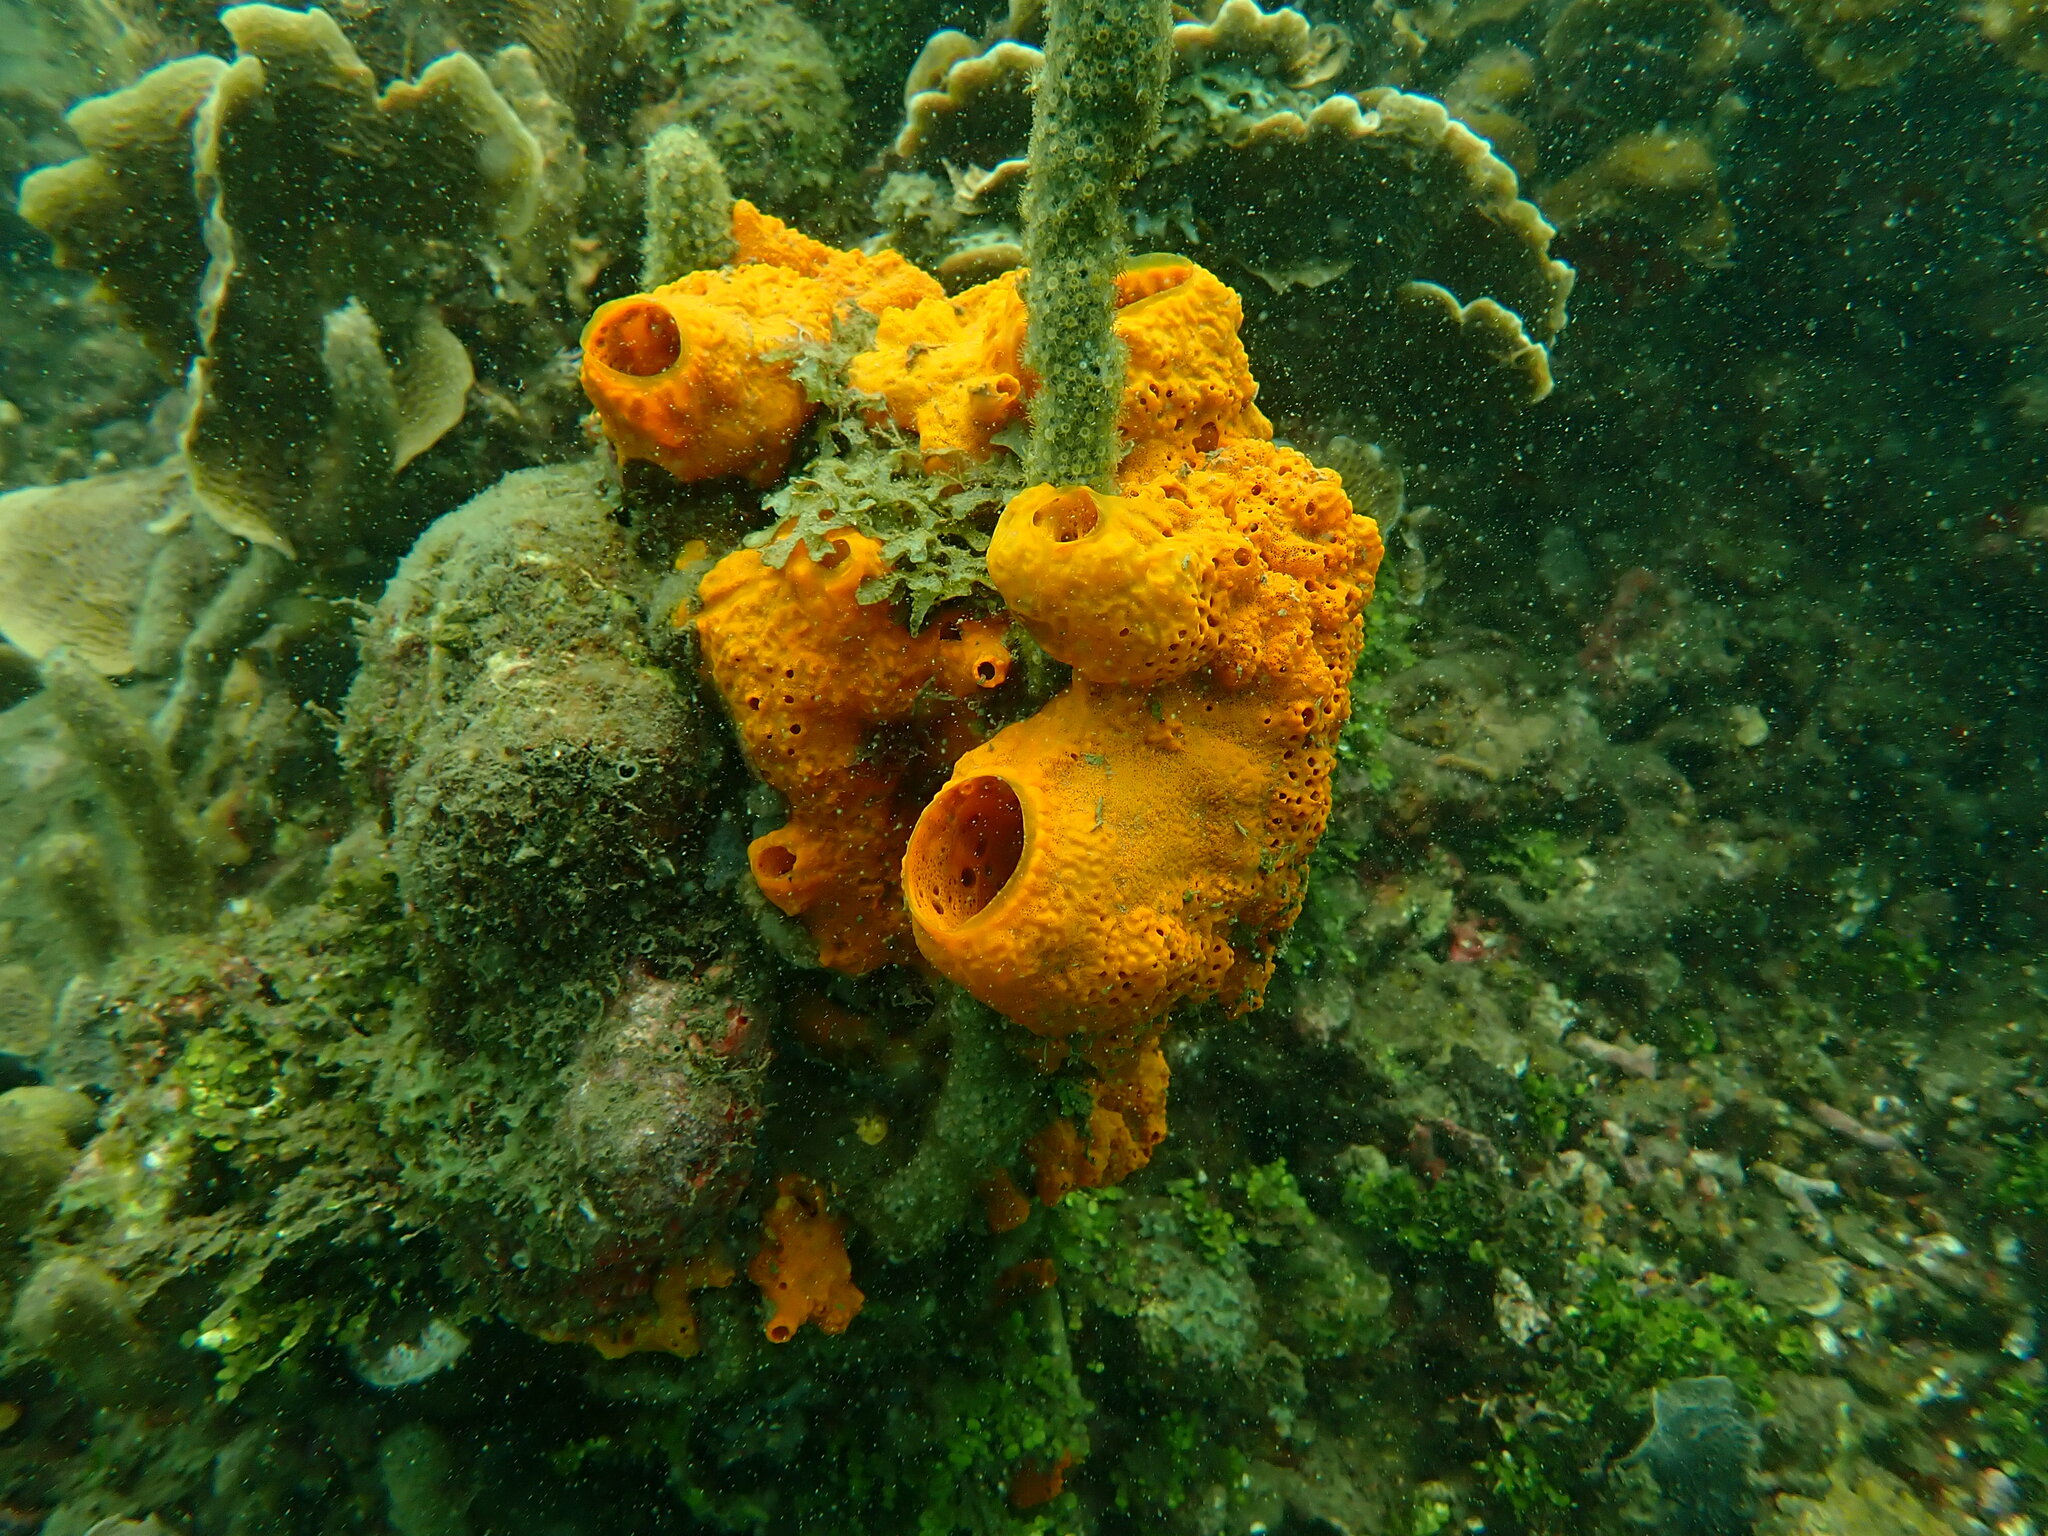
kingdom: Animalia
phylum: Porifera
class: Demospongiae
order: Poecilosclerida
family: Coelosphaeridae
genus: Lissodendoryx
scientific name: Lissodendoryx colombiensis
